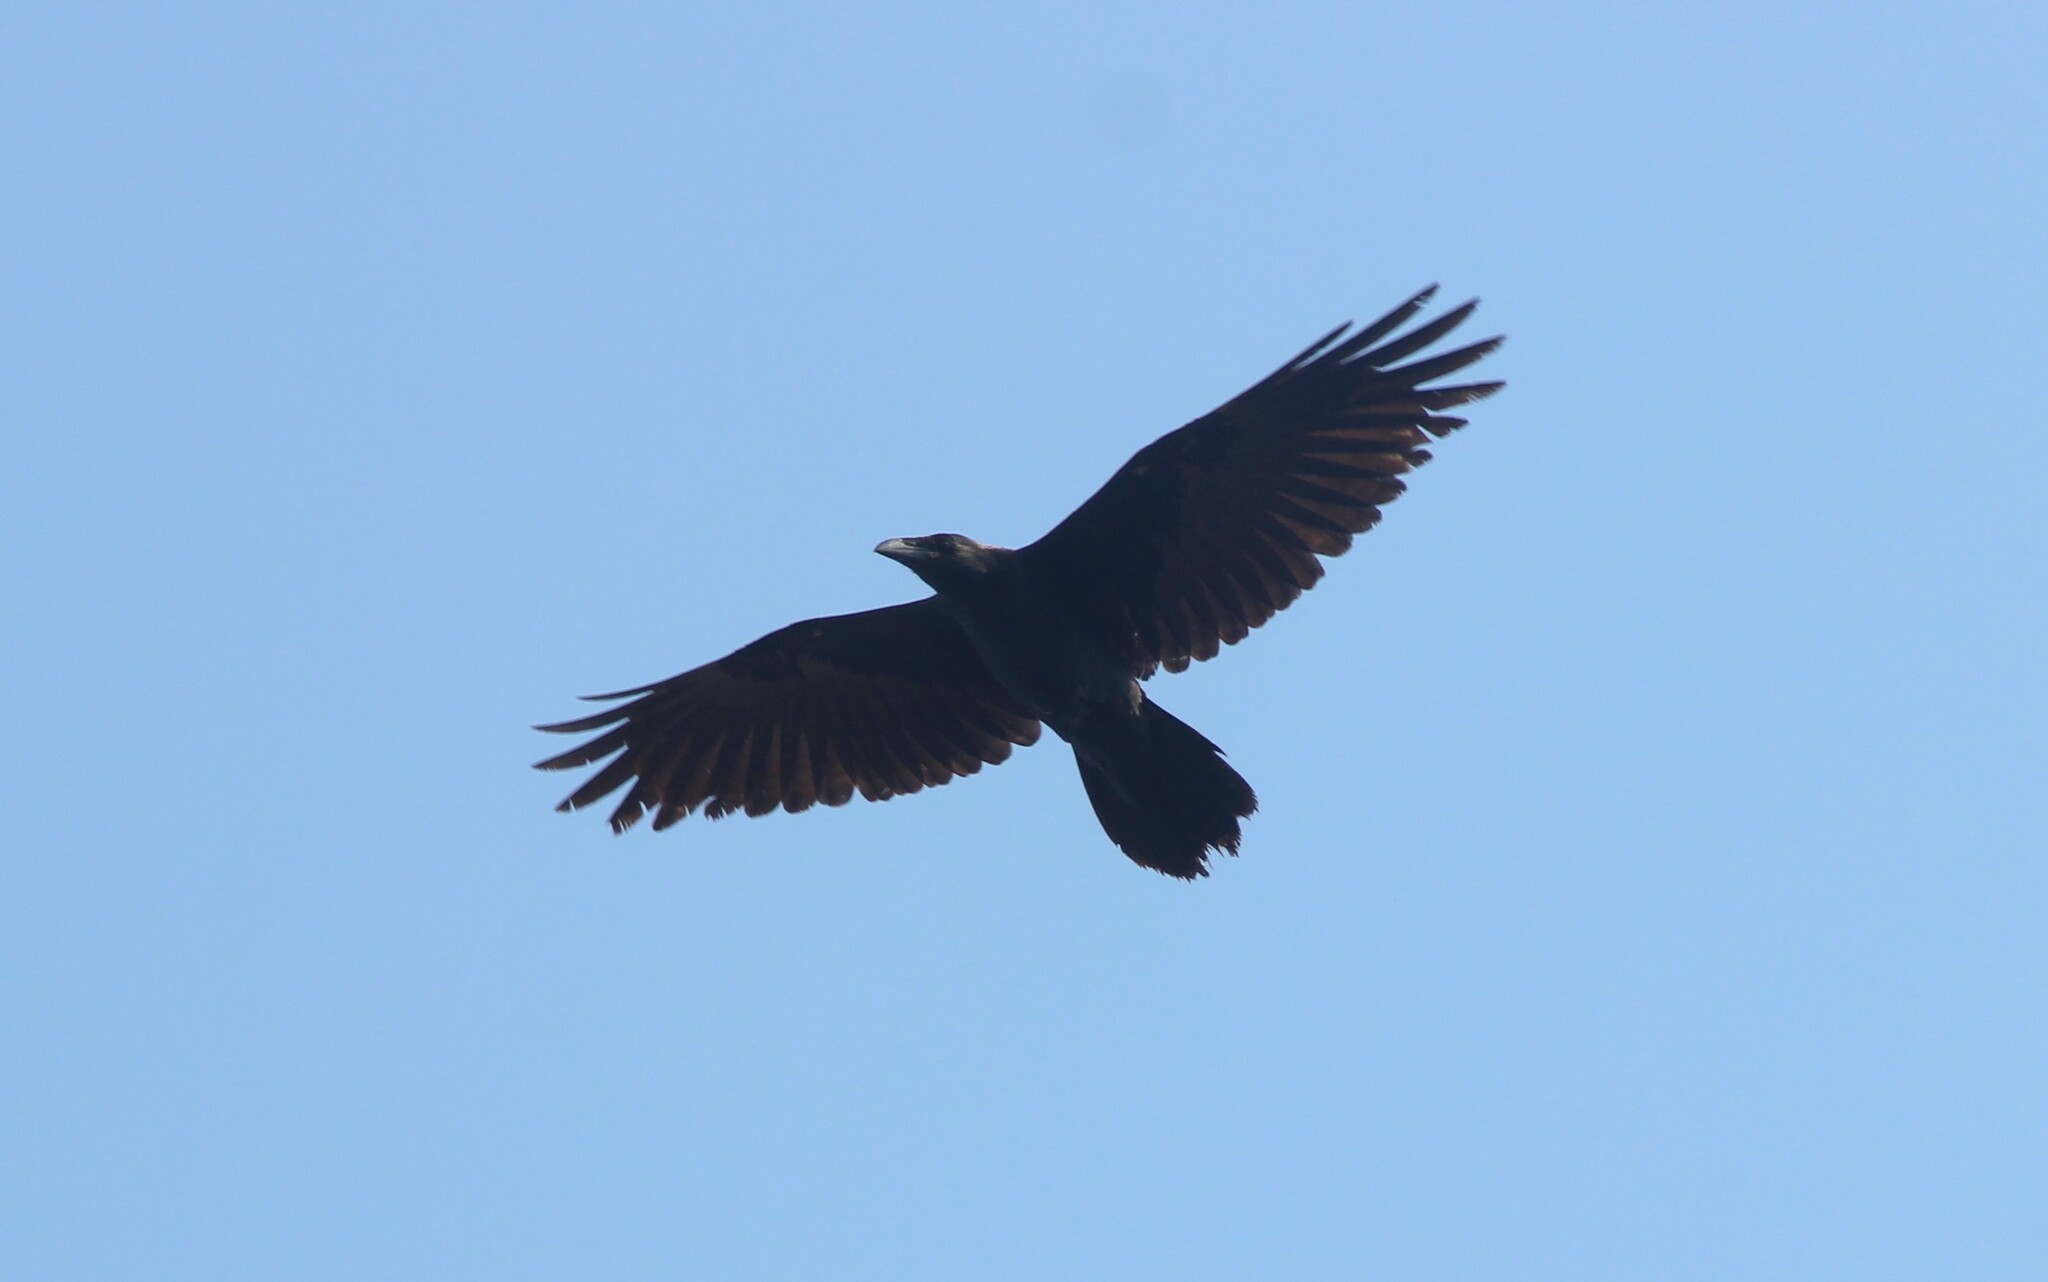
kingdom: Animalia
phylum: Chordata
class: Aves
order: Passeriformes
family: Corvidae
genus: Corvus
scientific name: Corvus corax
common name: Common raven
